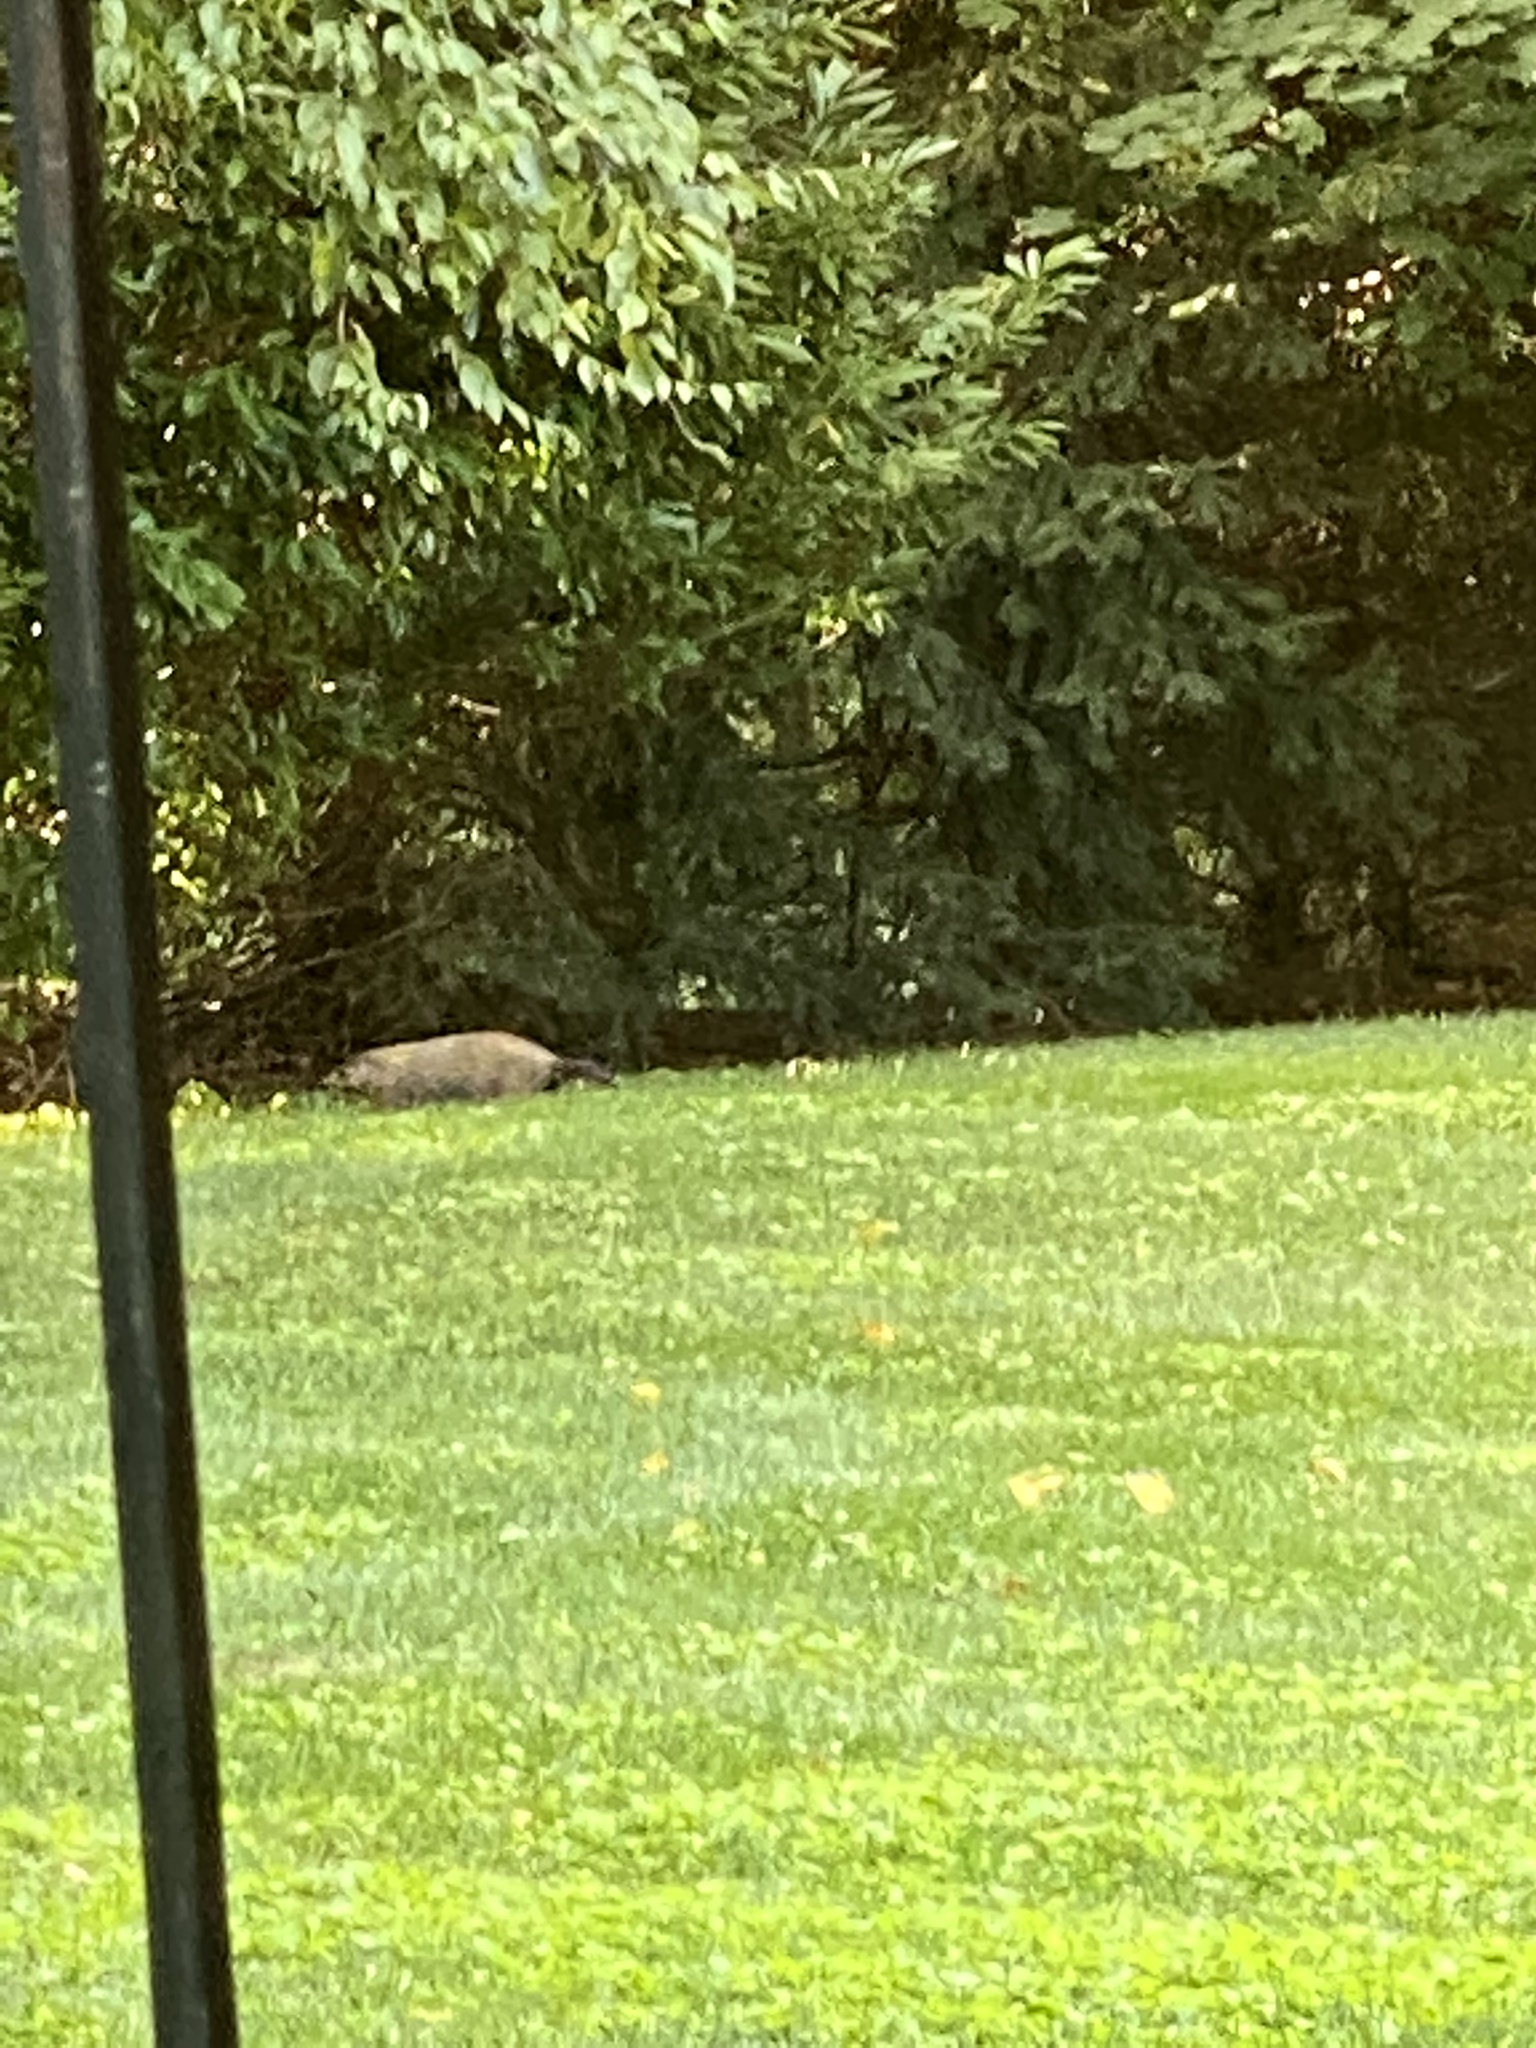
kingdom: Animalia
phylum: Chordata
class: Mammalia
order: Rodentia
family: Sciuridae
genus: Marmota
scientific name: Marmota monax
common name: Groundhog
